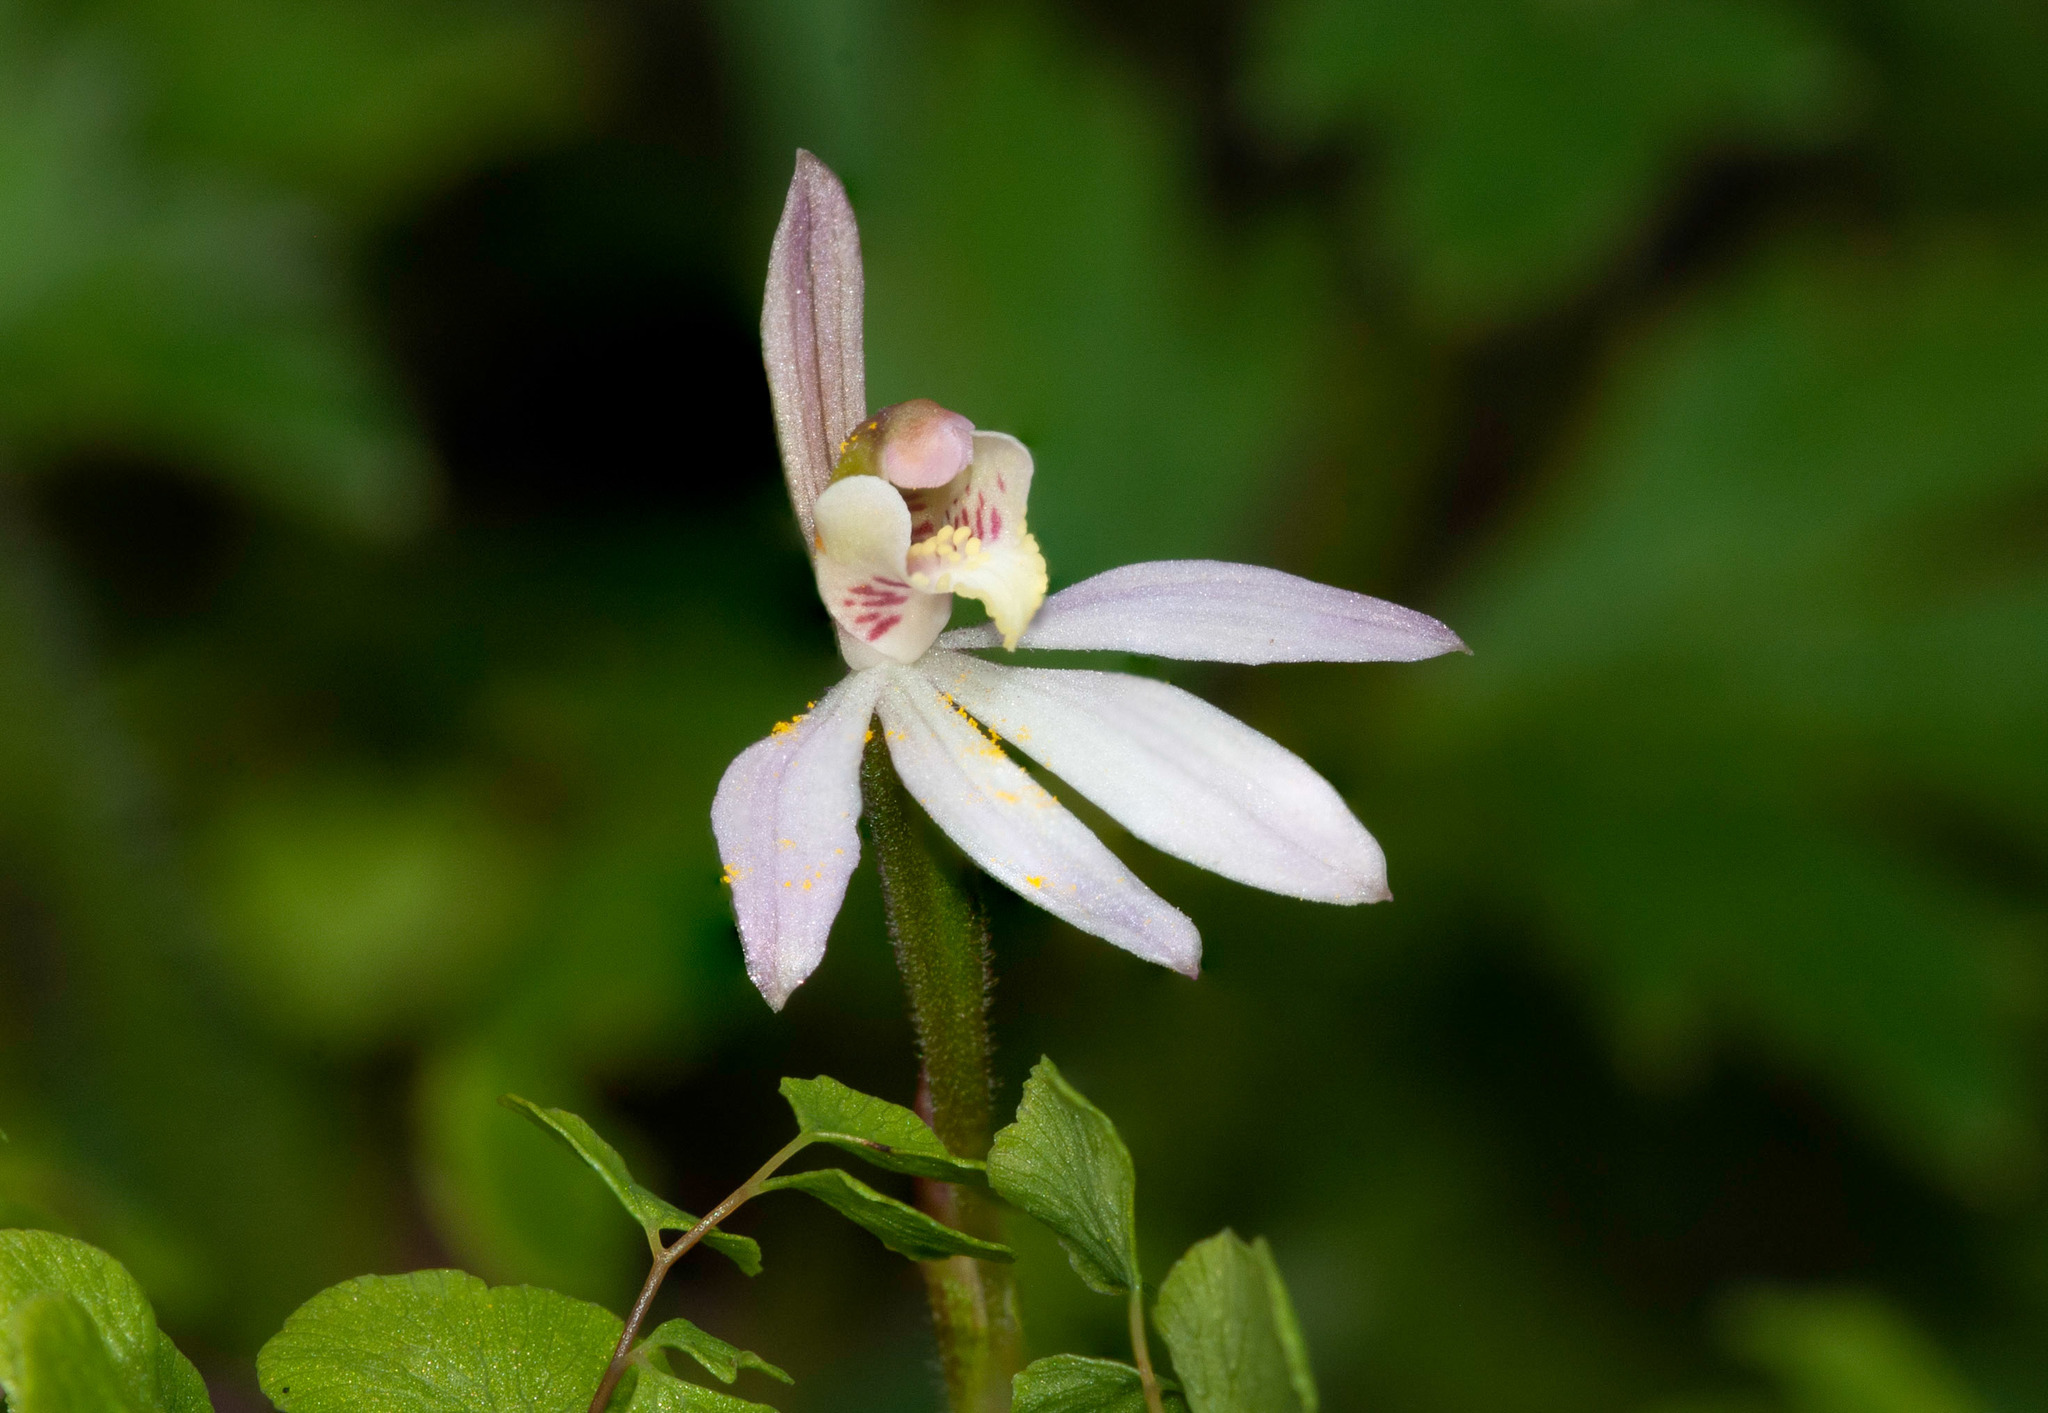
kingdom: Plantae
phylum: Tracheophyta
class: Liliopsida
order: Asparagales
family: Orchidaceae
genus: Caladenia
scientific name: Caladenia carnea
